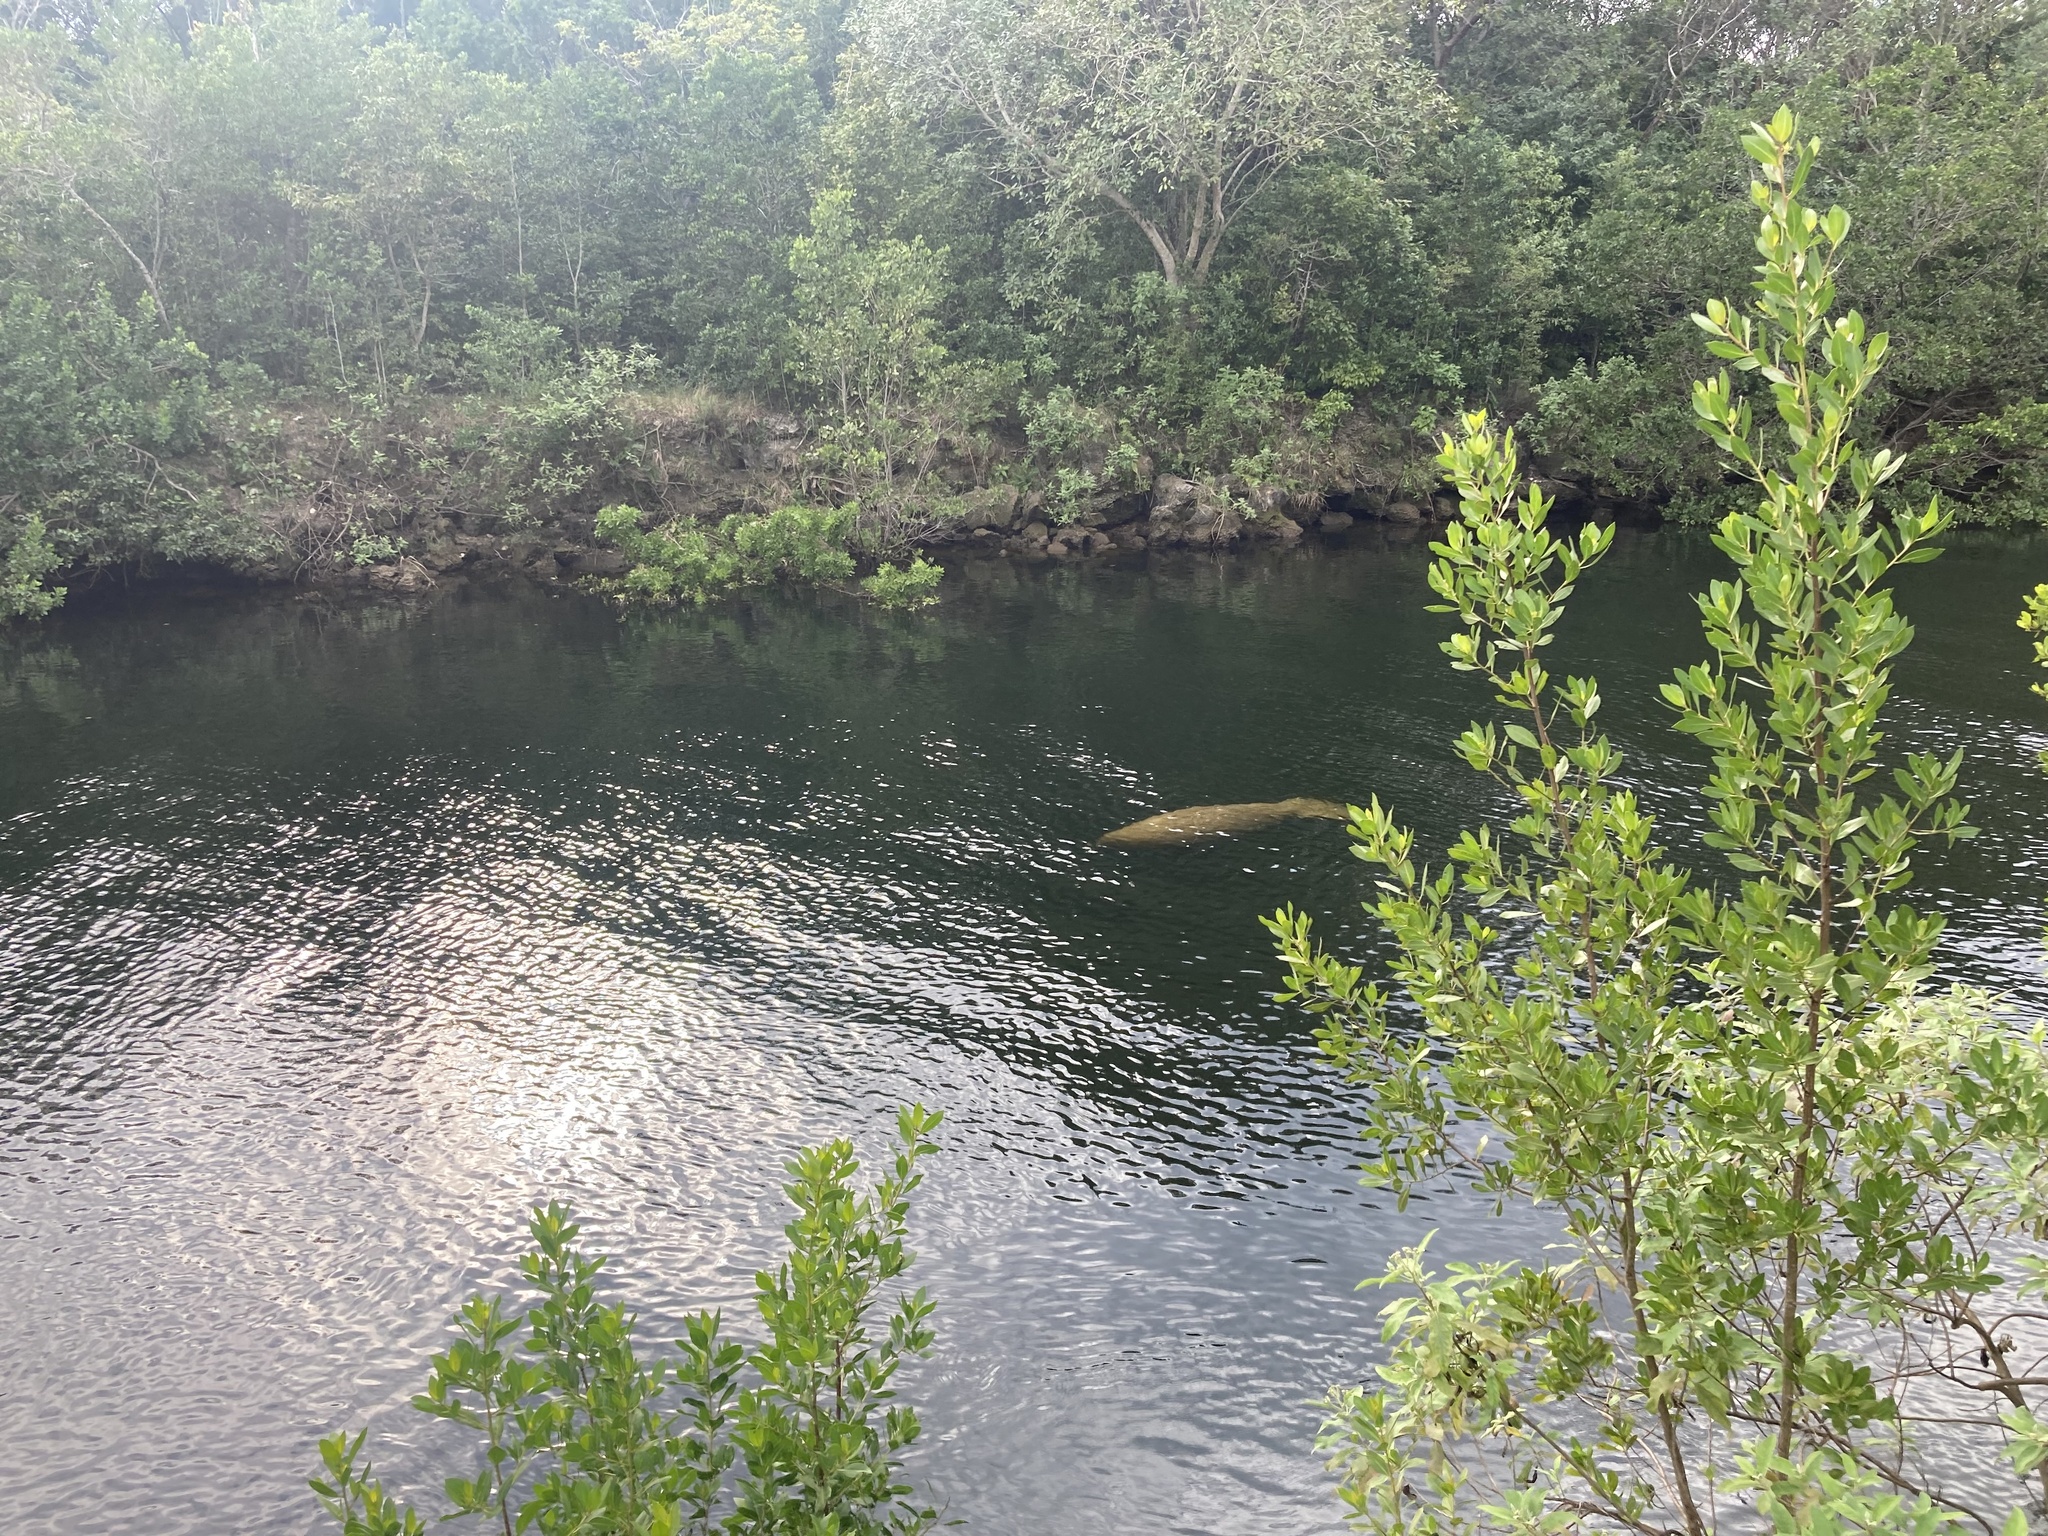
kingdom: Animalia
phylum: Chordata
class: Mammalia
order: Sirenia
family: Trichechidae
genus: Trichechus
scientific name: Trichechus manatus
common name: West indian manatee
